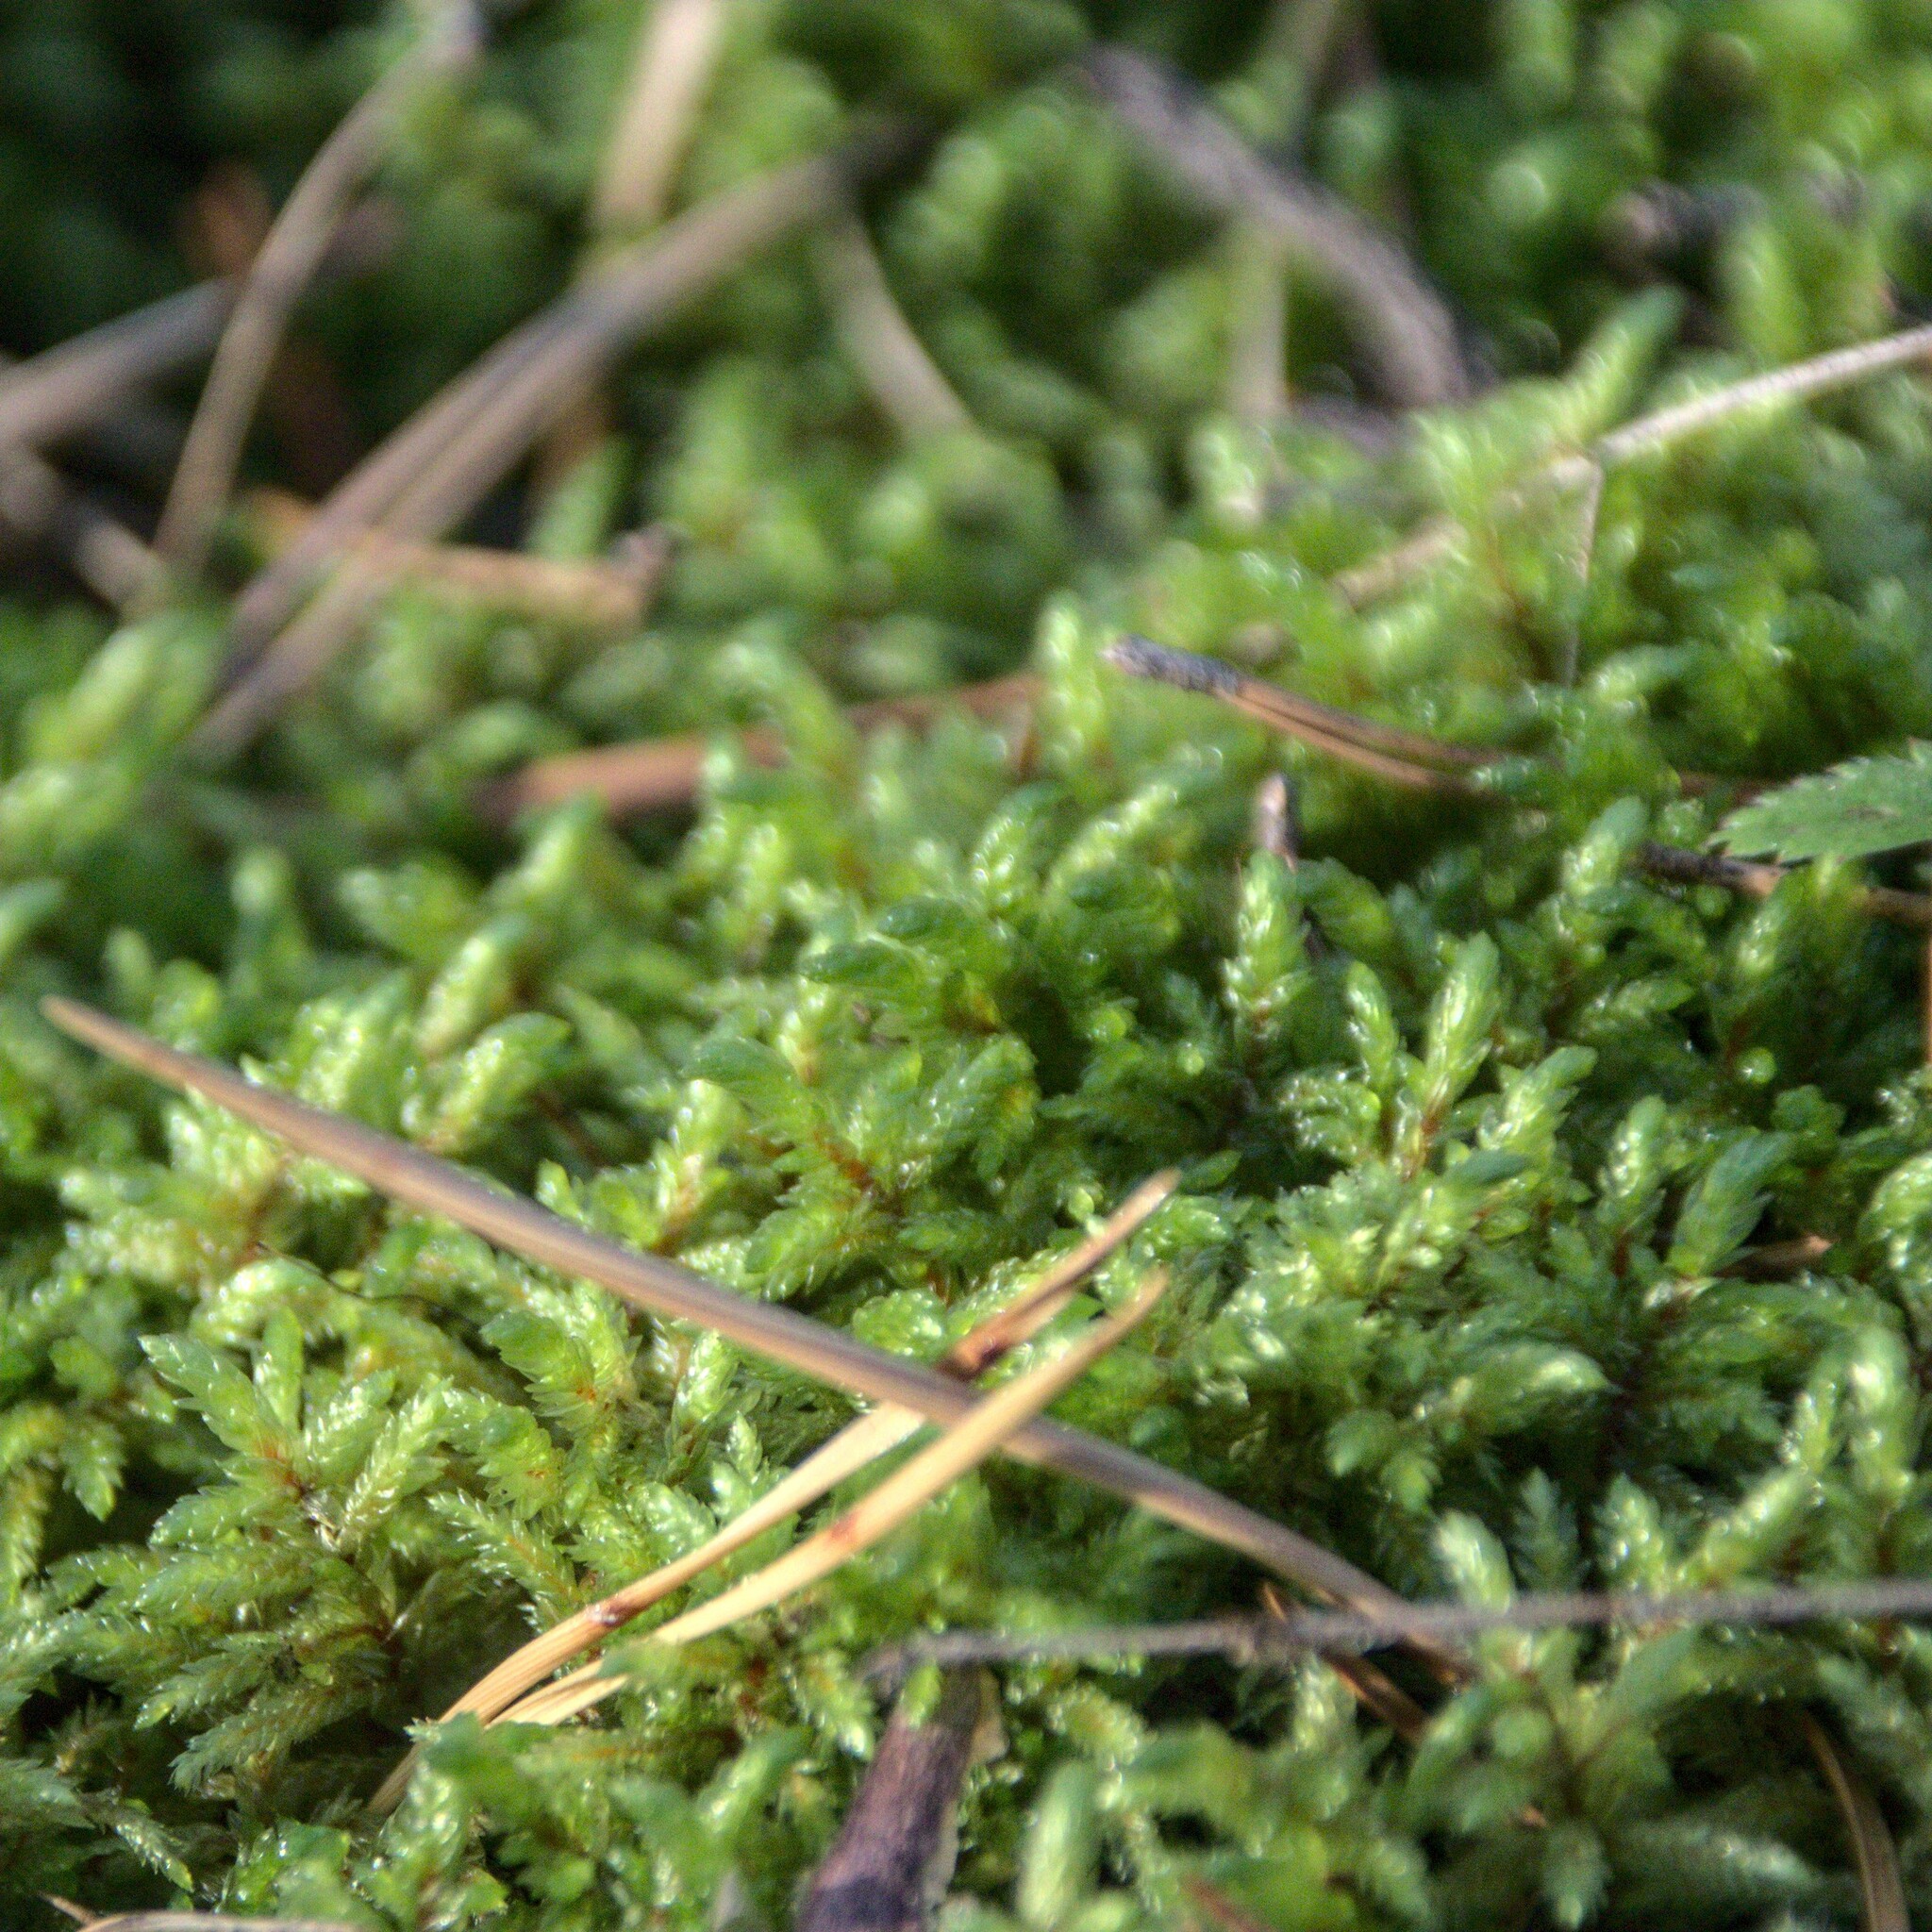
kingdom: Plantae
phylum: Bryophyta
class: Bryopsida
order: Hypnales
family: Hylocomiaceae
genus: Pleurozium
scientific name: Pleurozium schreberi
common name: Red-stemmed feather moss
